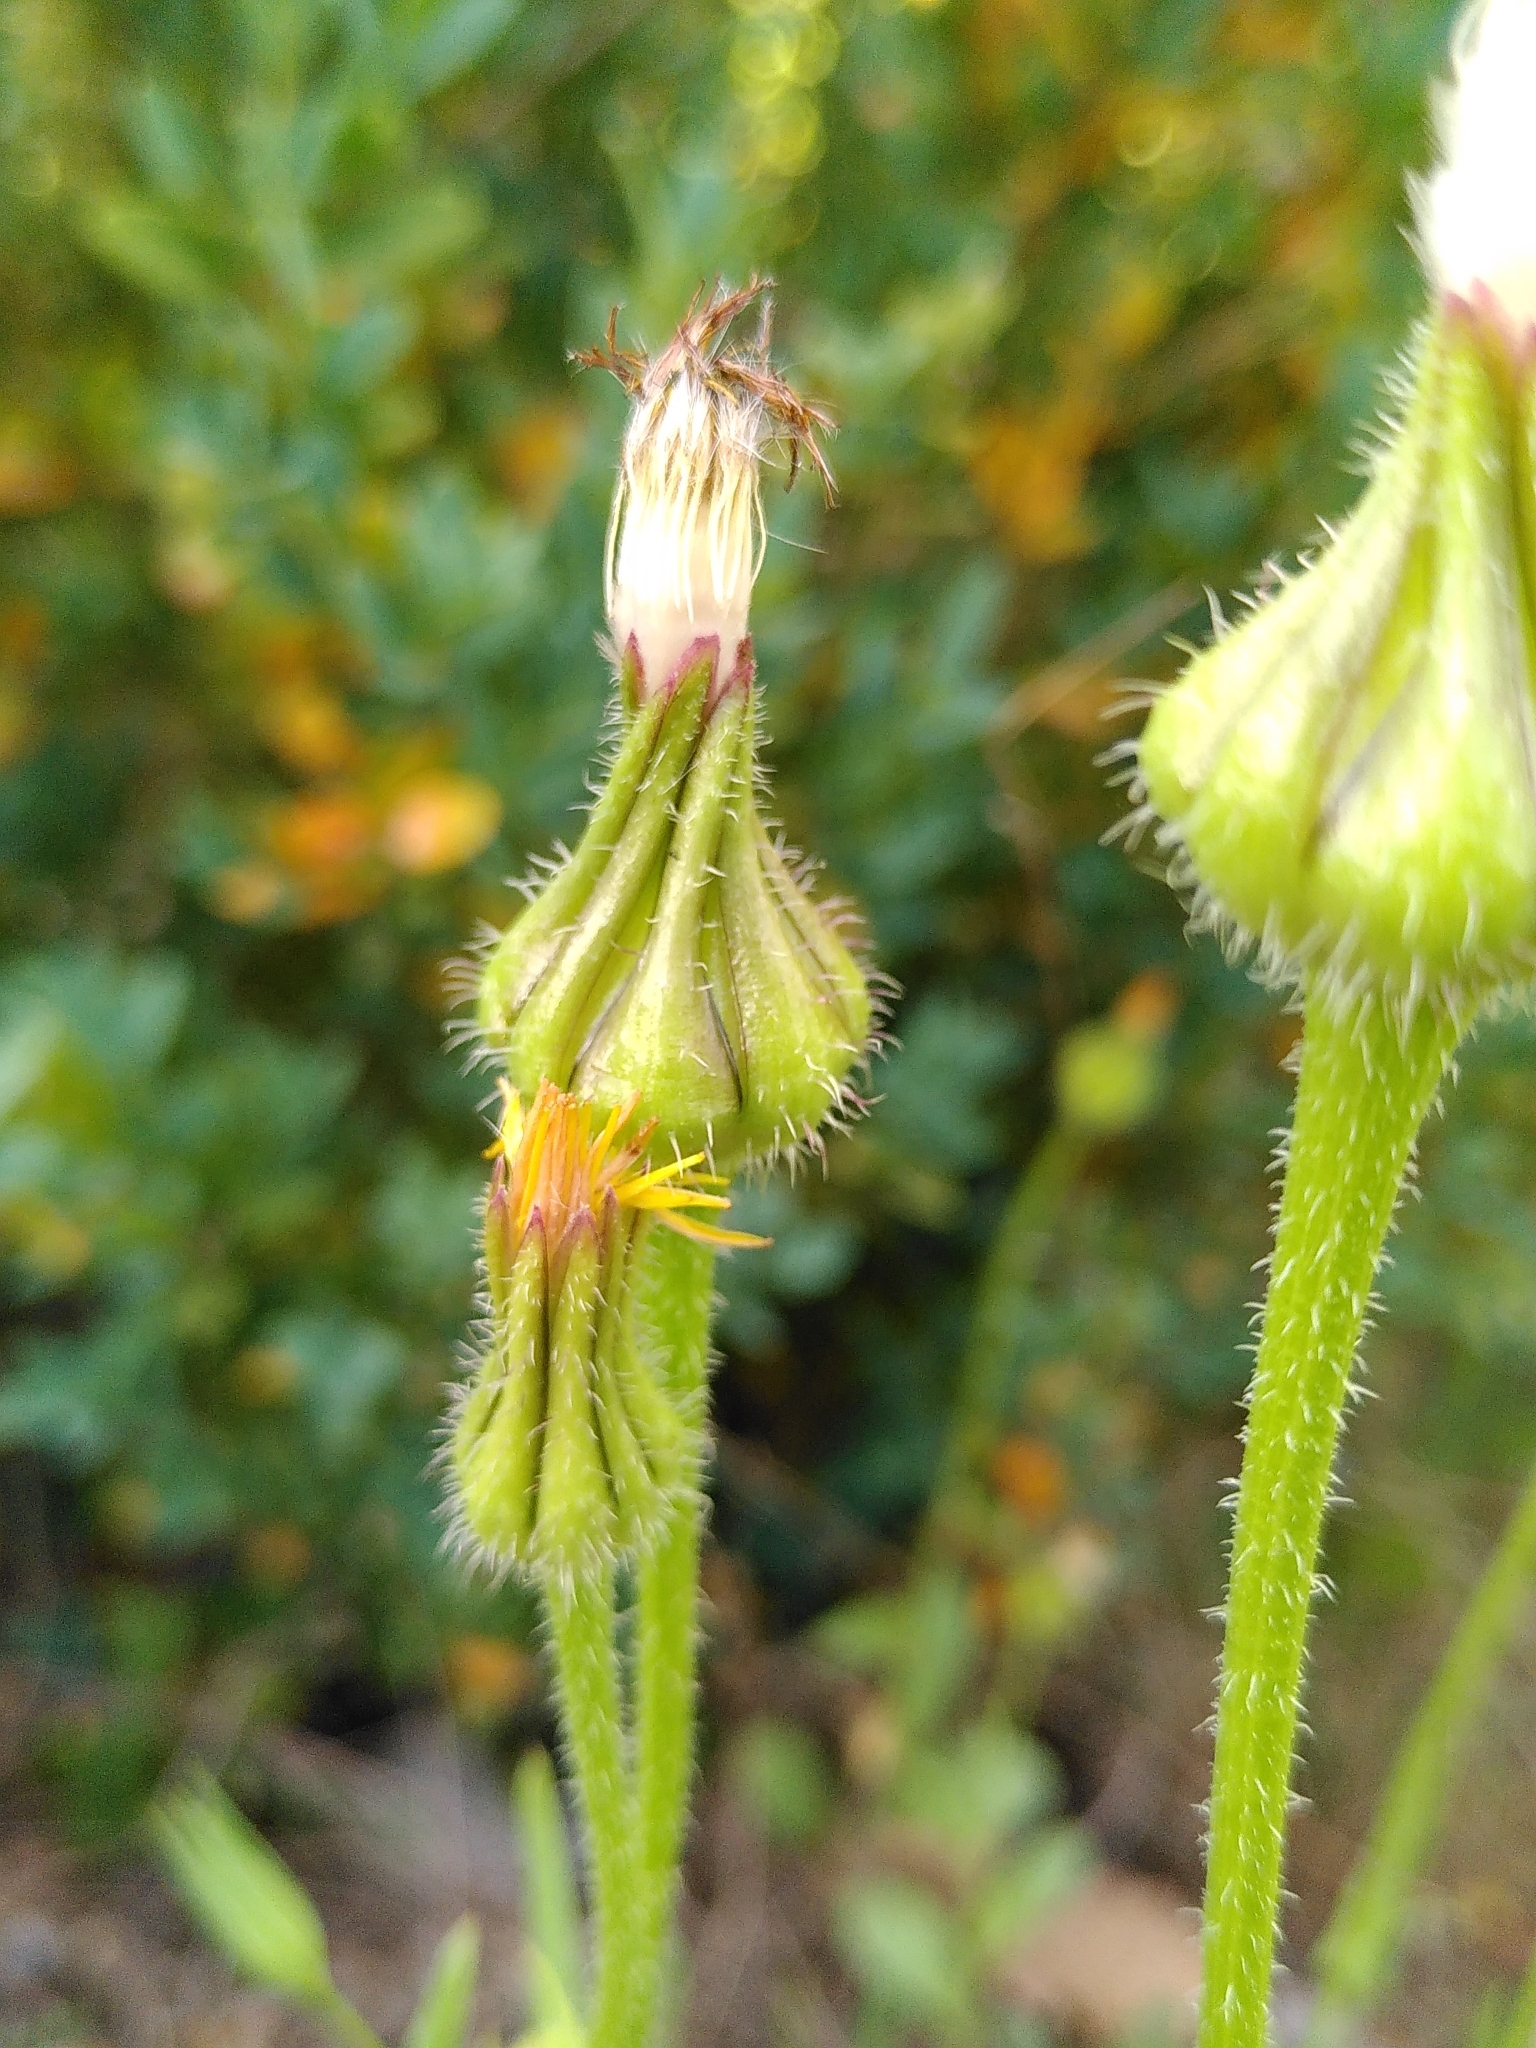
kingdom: Plantae
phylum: Tracheophyta
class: Magnoliopsida
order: Asterales
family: Asteraceae
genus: Urospermum
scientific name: Urospermum picroides
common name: False hawkbit
